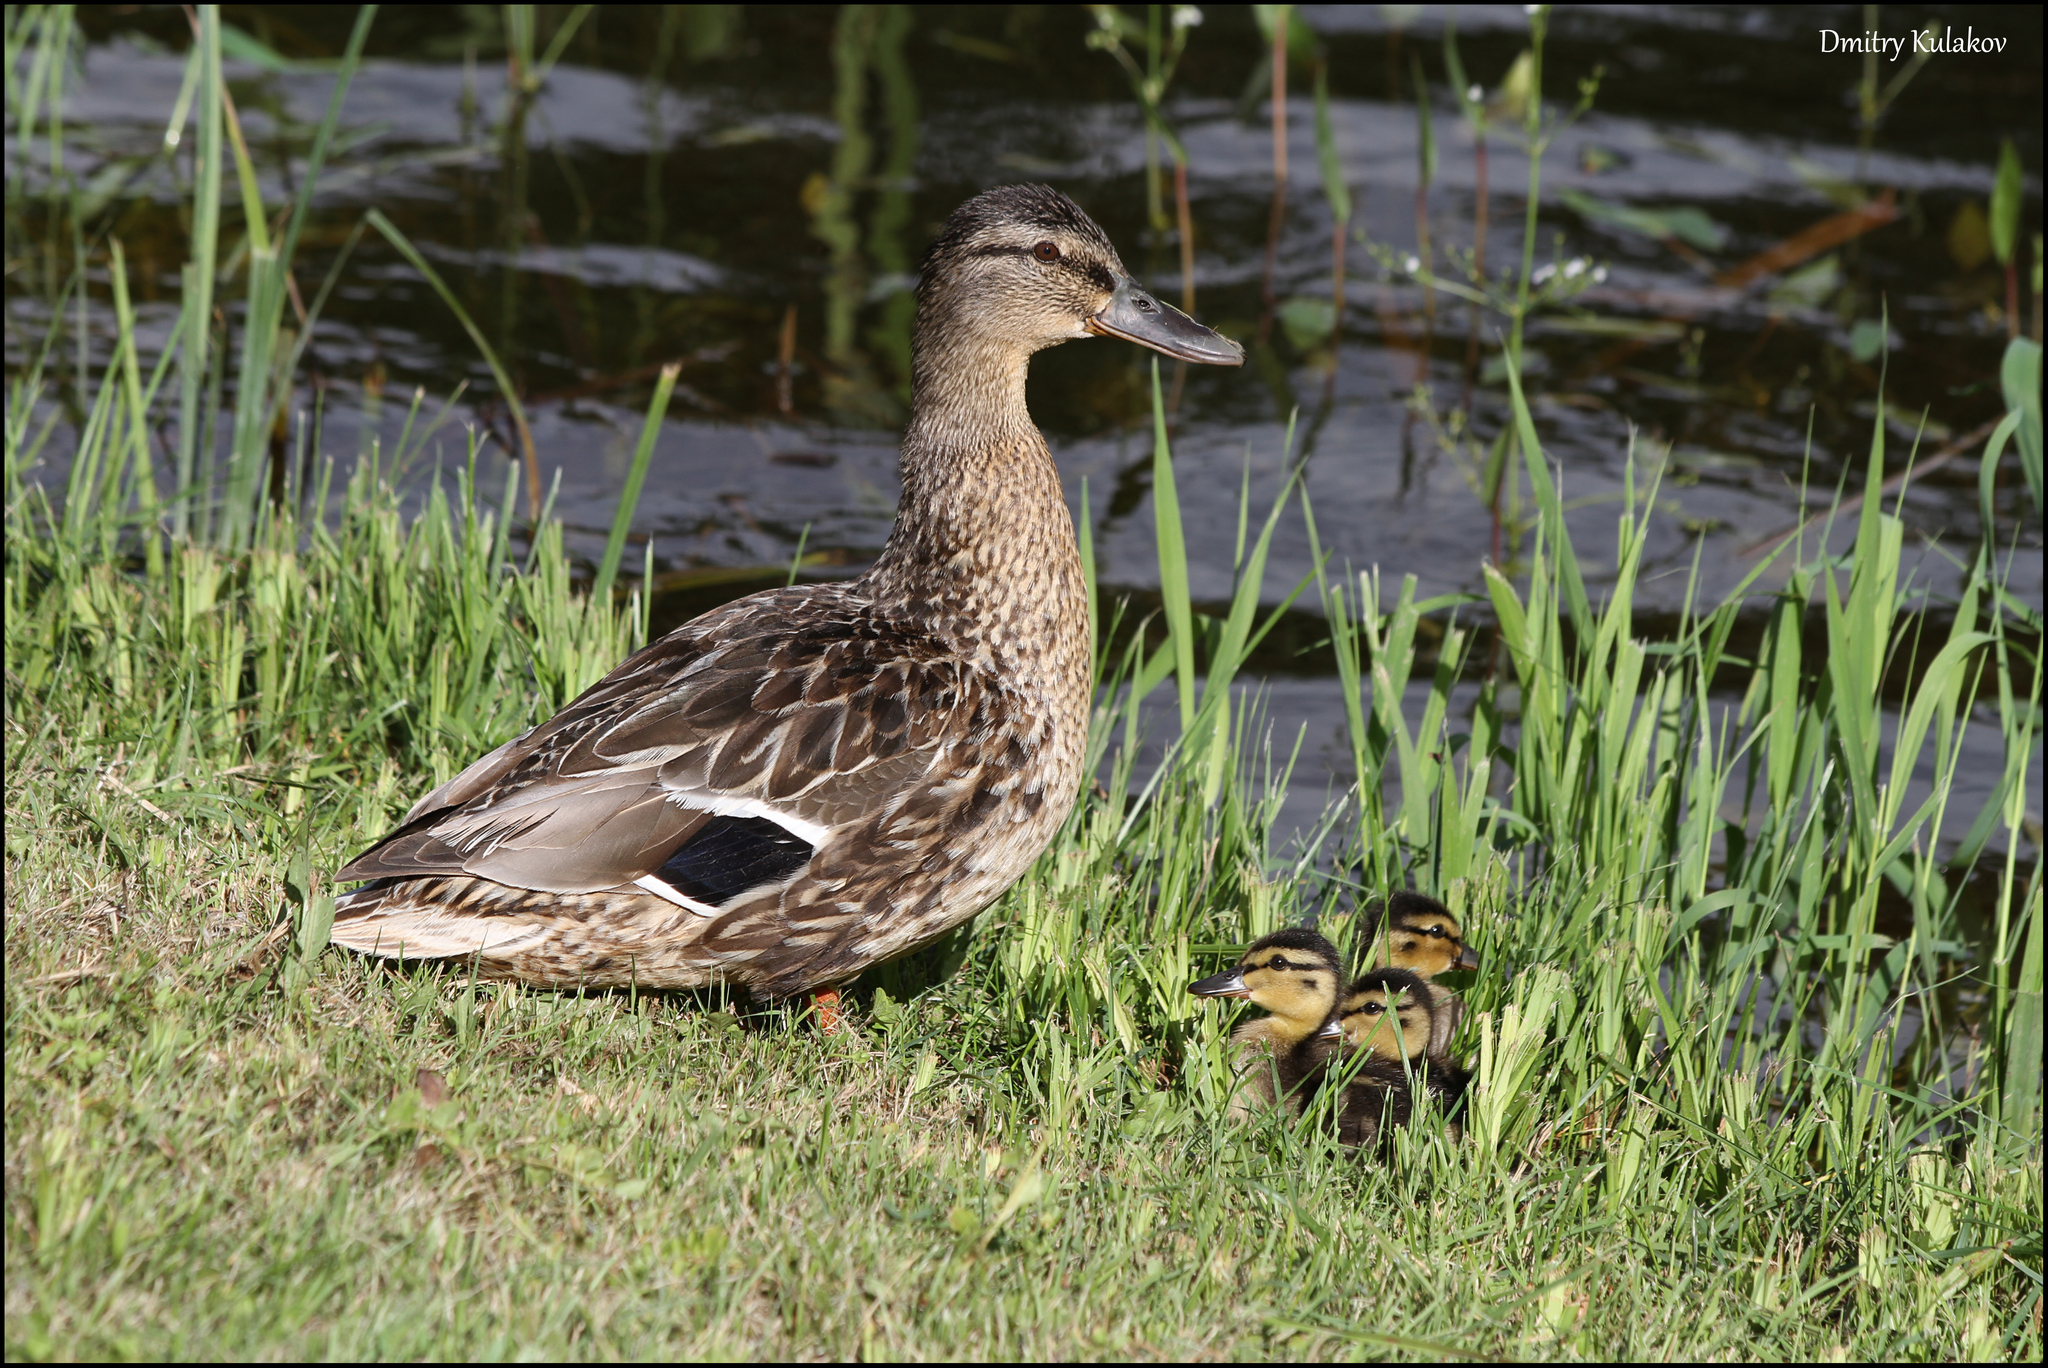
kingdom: Animalia
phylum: Chordata
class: Aves
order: Anseriformes
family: Anatidae
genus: Anas
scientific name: Anas platyrhynchos
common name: Mallard
